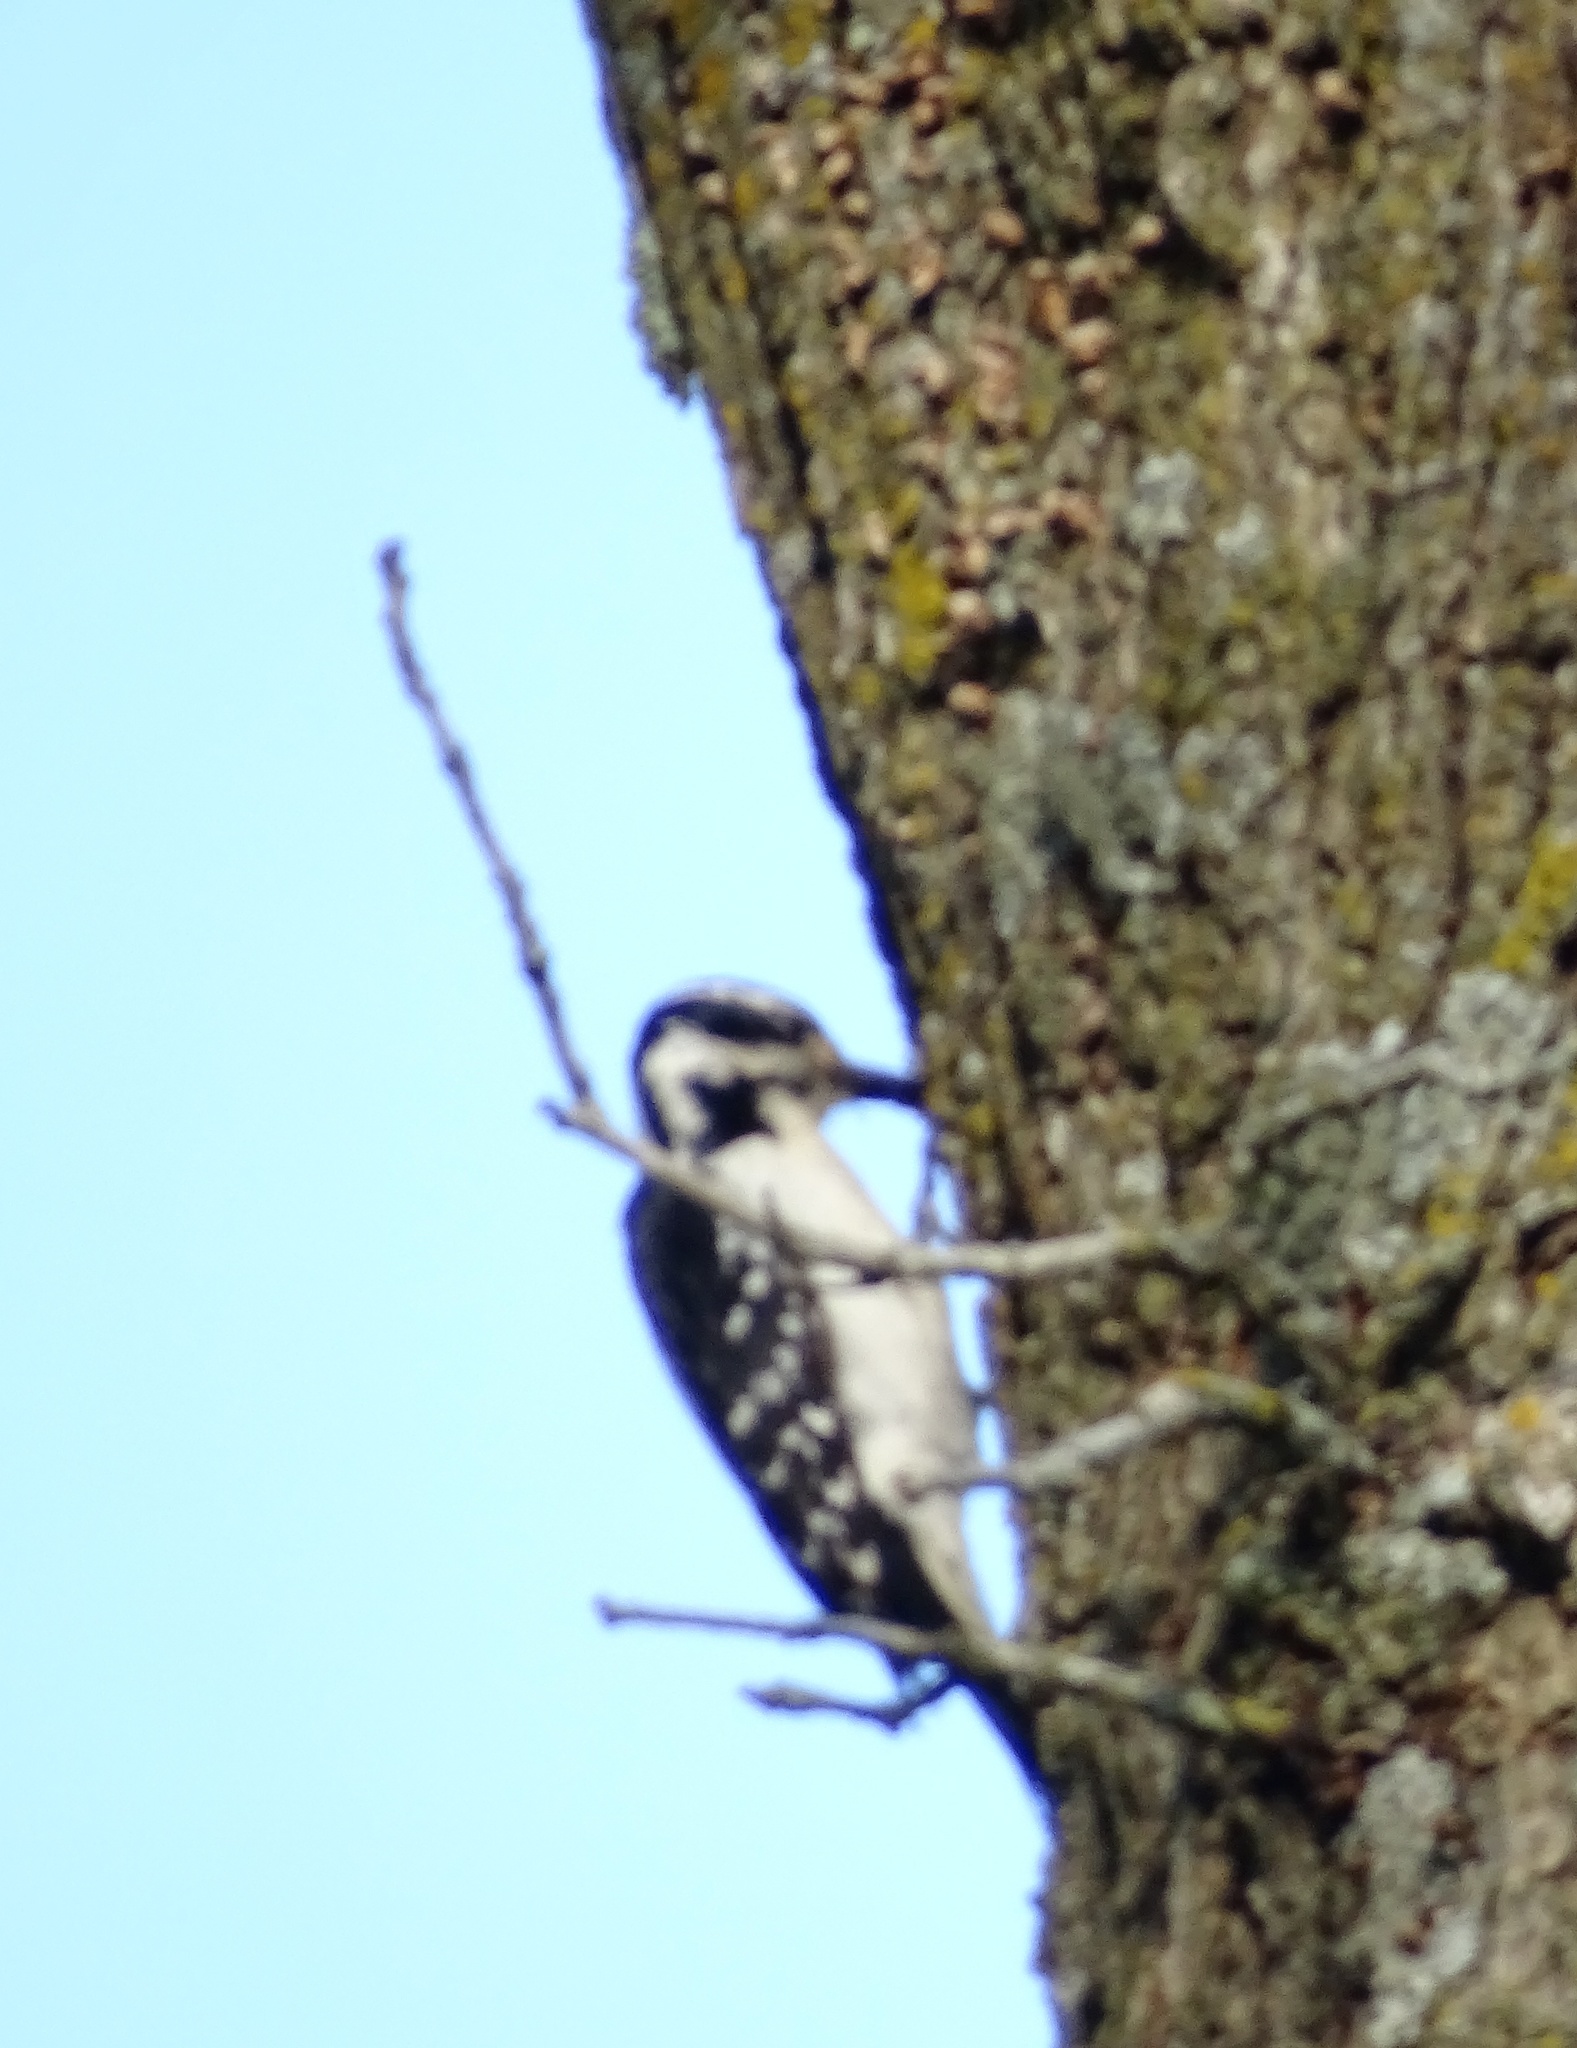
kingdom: Animalia
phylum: Chordata
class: Aves
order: Piciformes
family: Picidae
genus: Leuconotopicus
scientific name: Leuconotopicus villosus
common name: Hairy woodpecker
